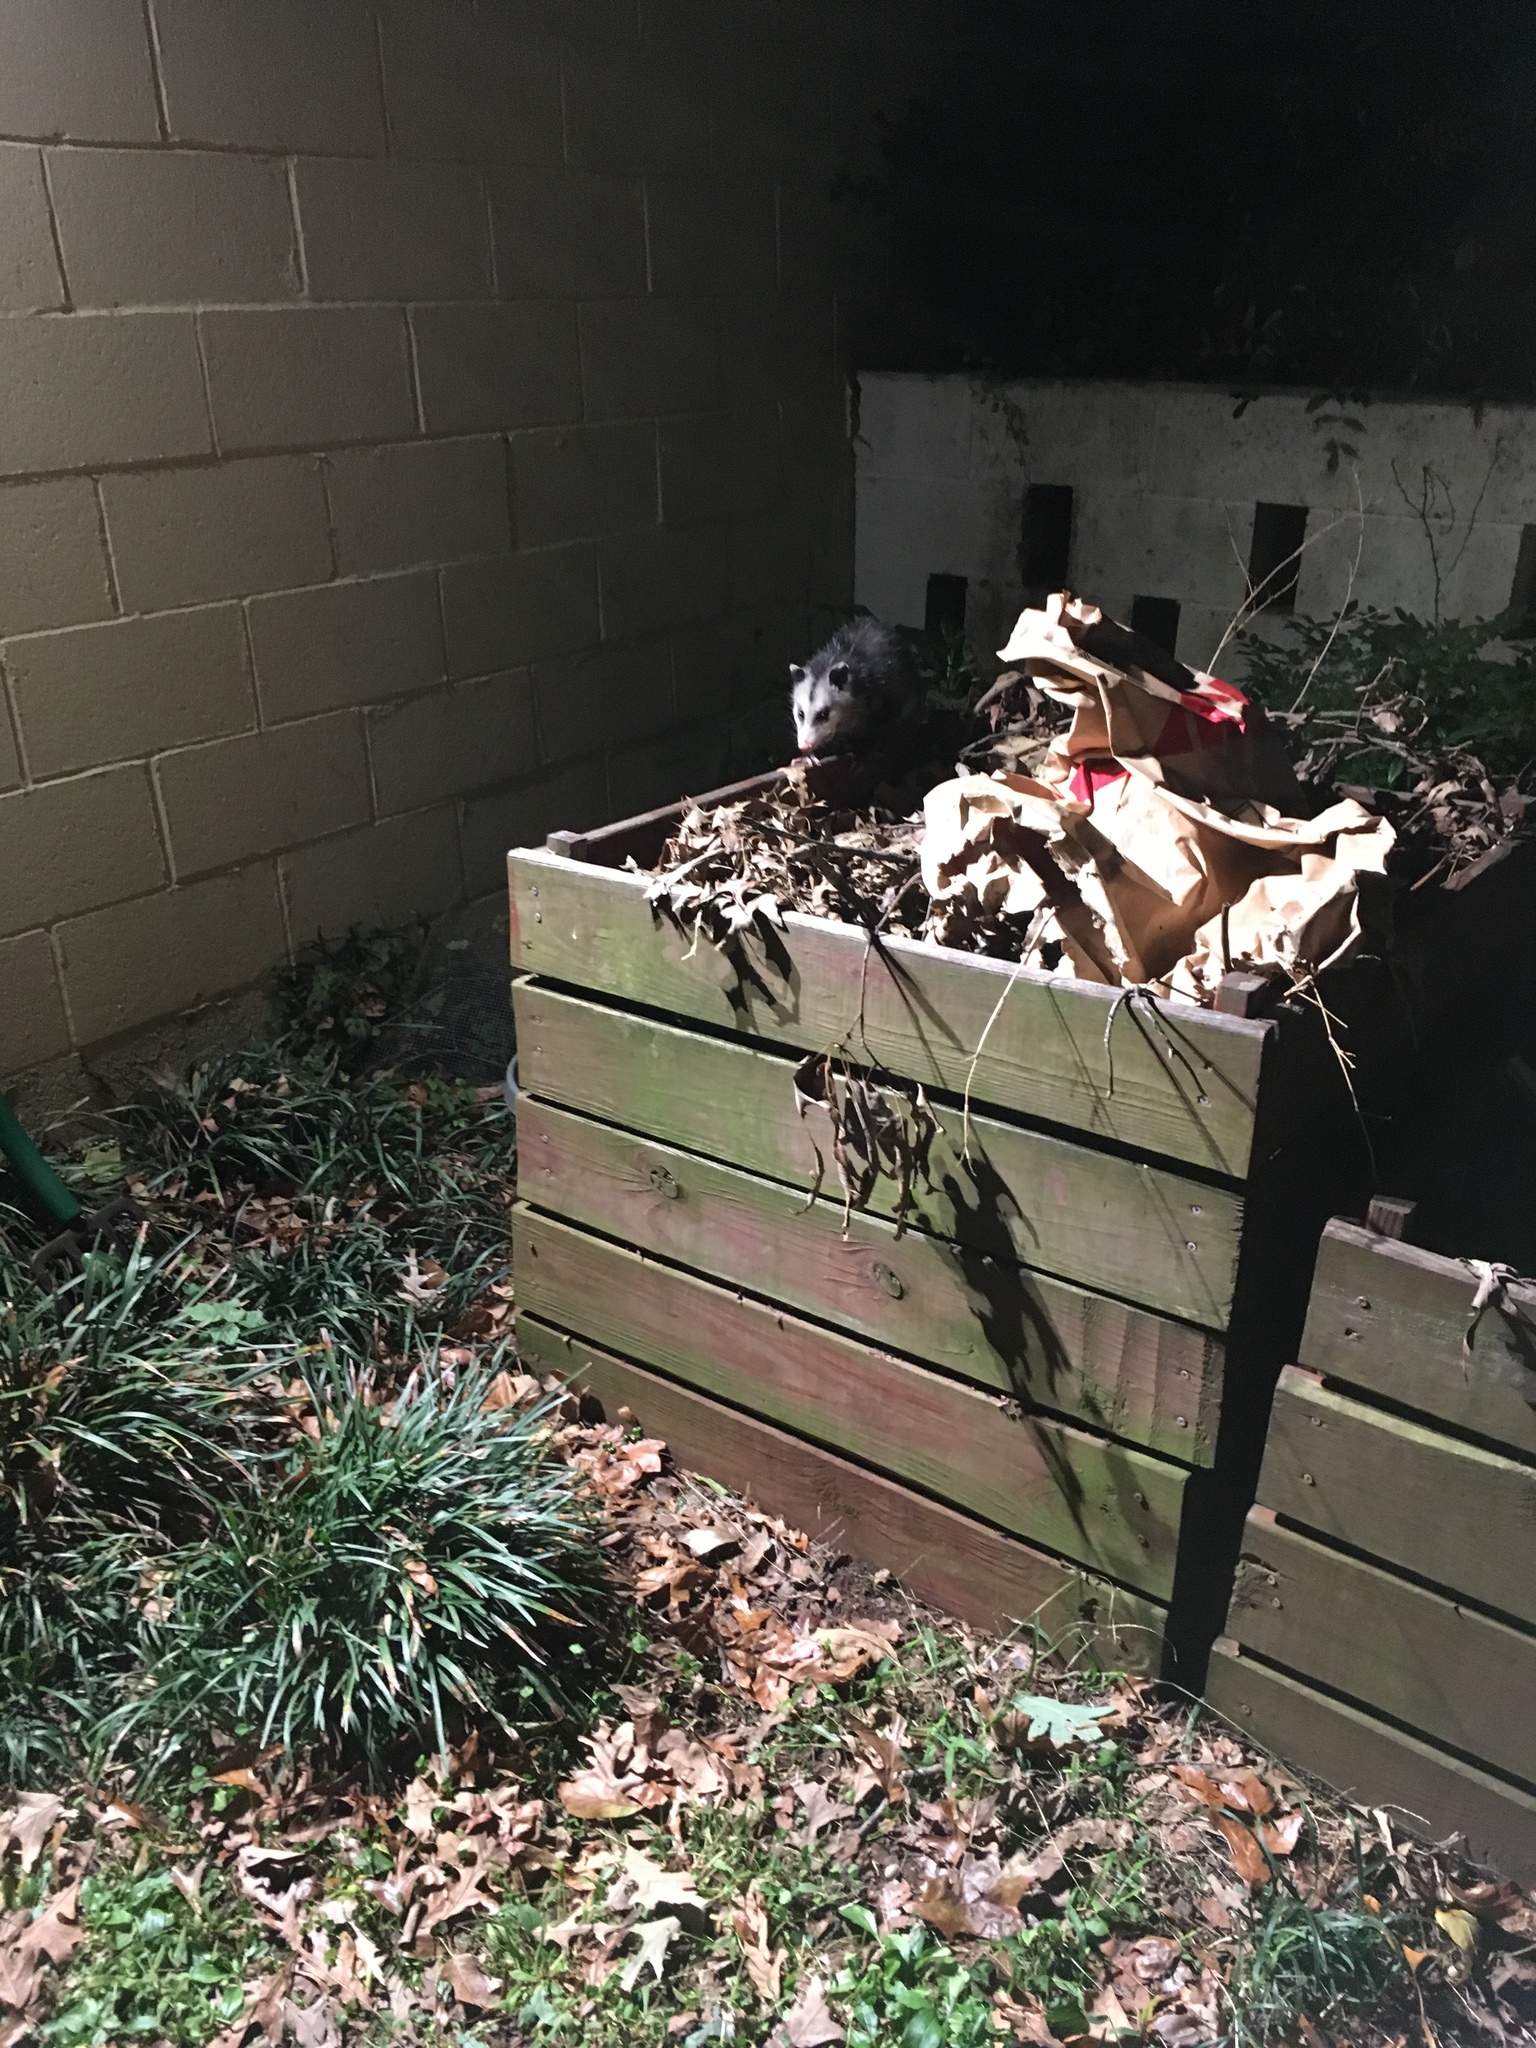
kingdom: Animalia
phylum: Chordata
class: Mammalia
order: Didelphimorphia
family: Didelphidae
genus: Didelphis
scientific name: Didelphis virginiana
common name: Virginia opossum
